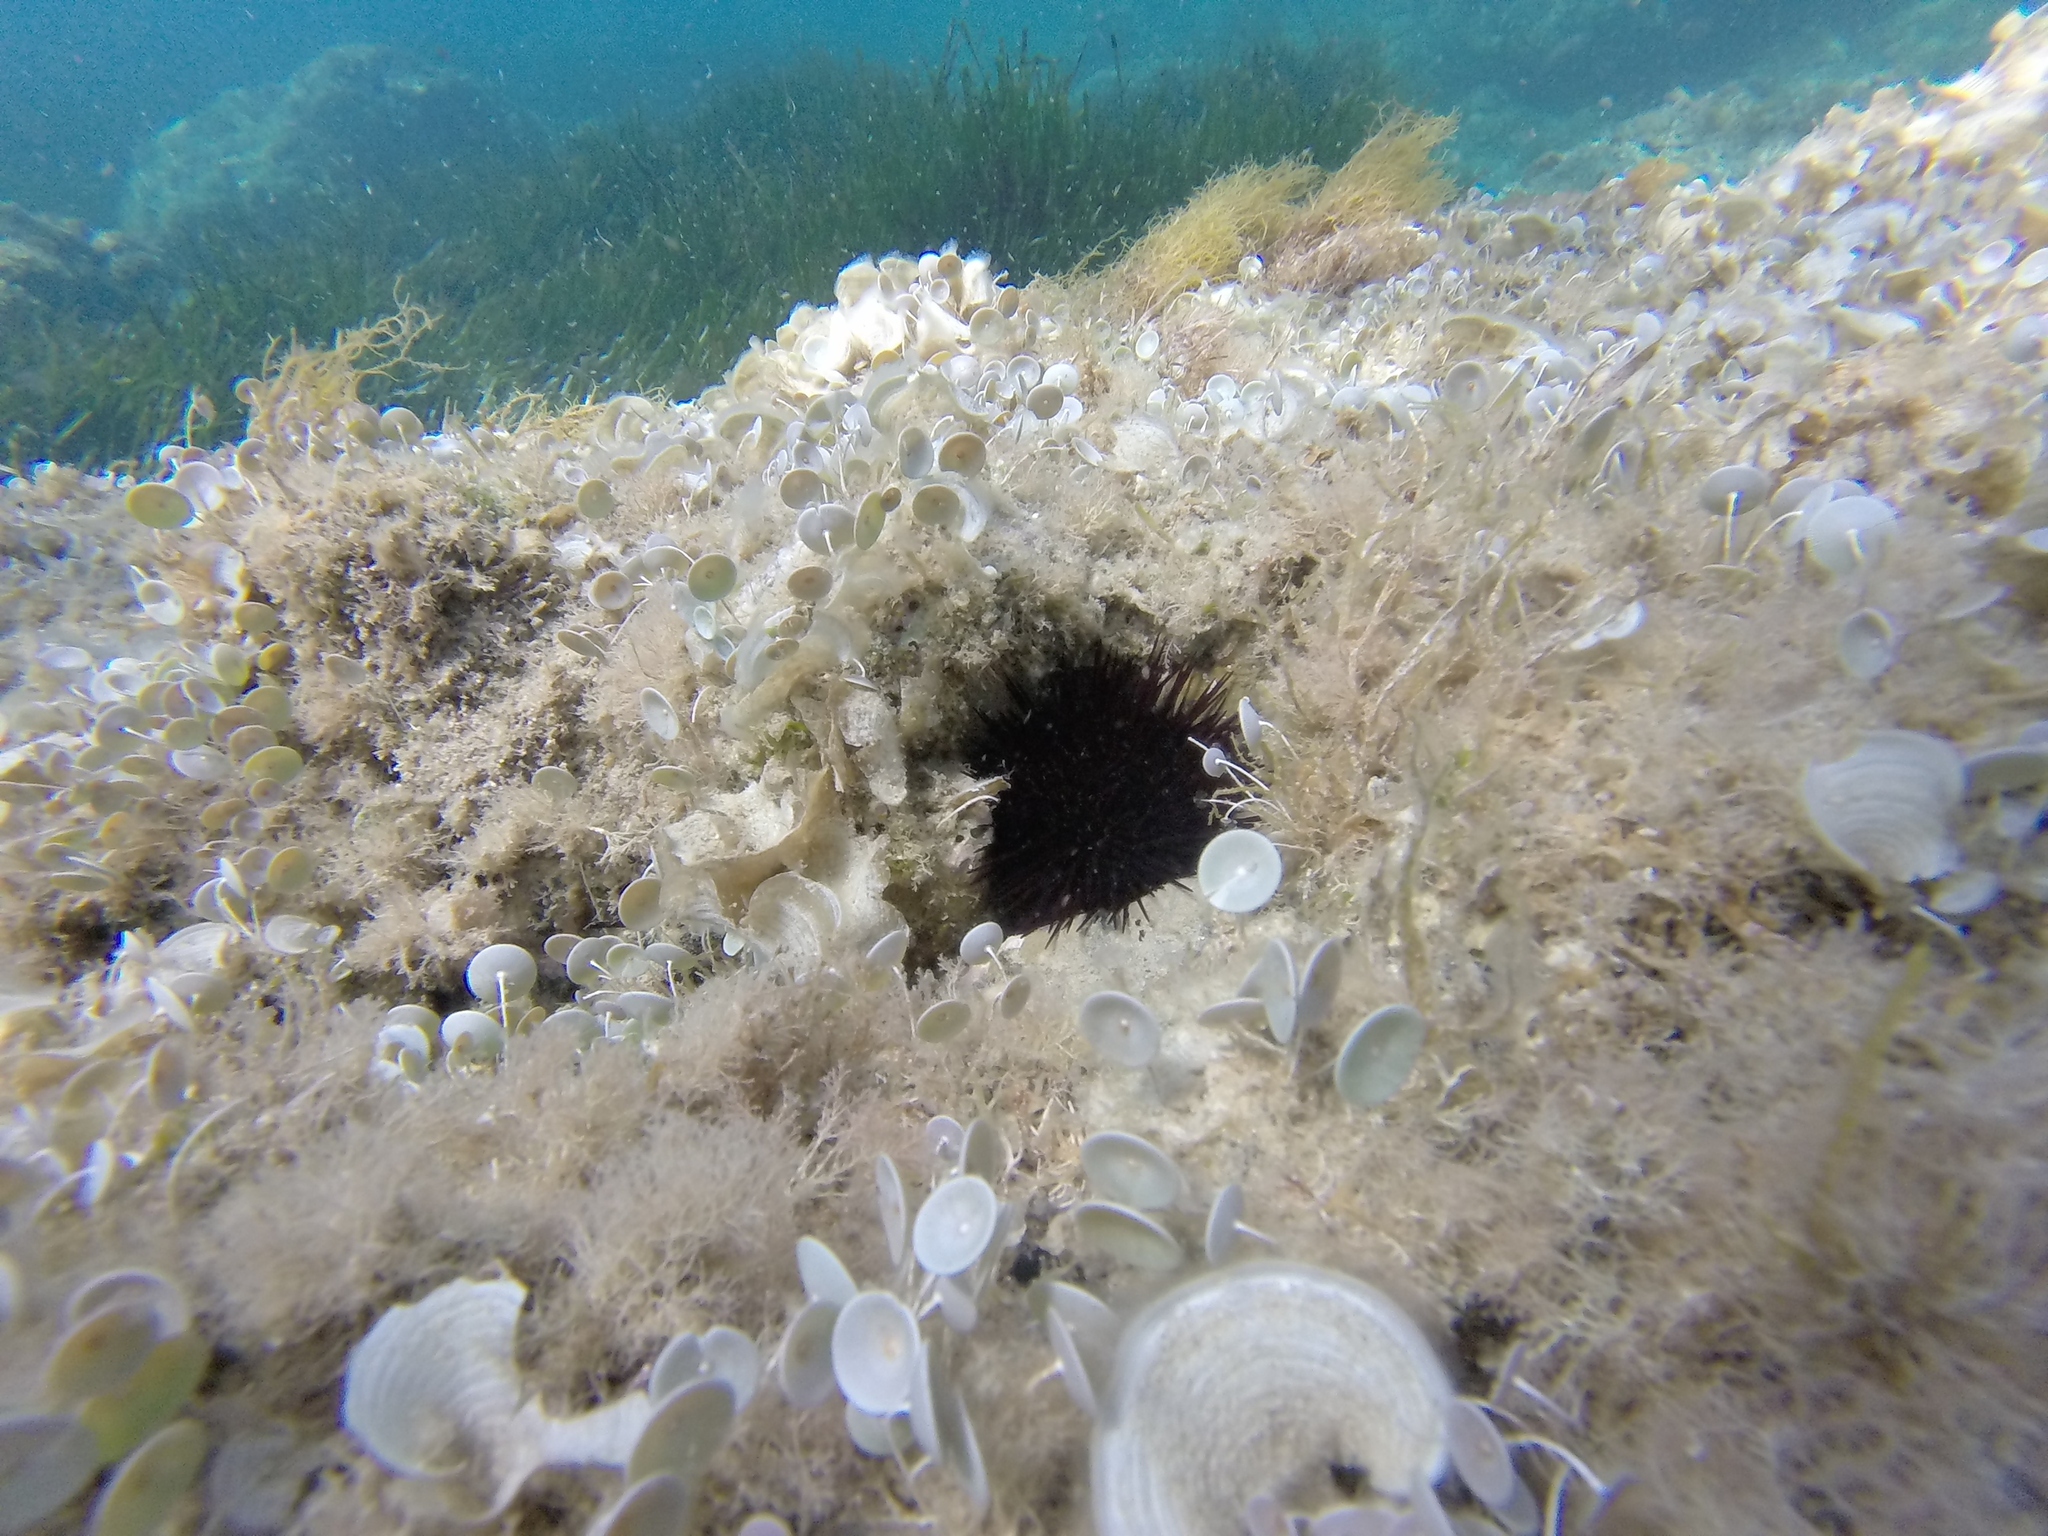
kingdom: Animalia
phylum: Echinodermata
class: Echinoidea
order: Camarodonta
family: Parechinidae
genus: Paracentrotus
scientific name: Paracentrotus lividus
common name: Purple sea urchin
